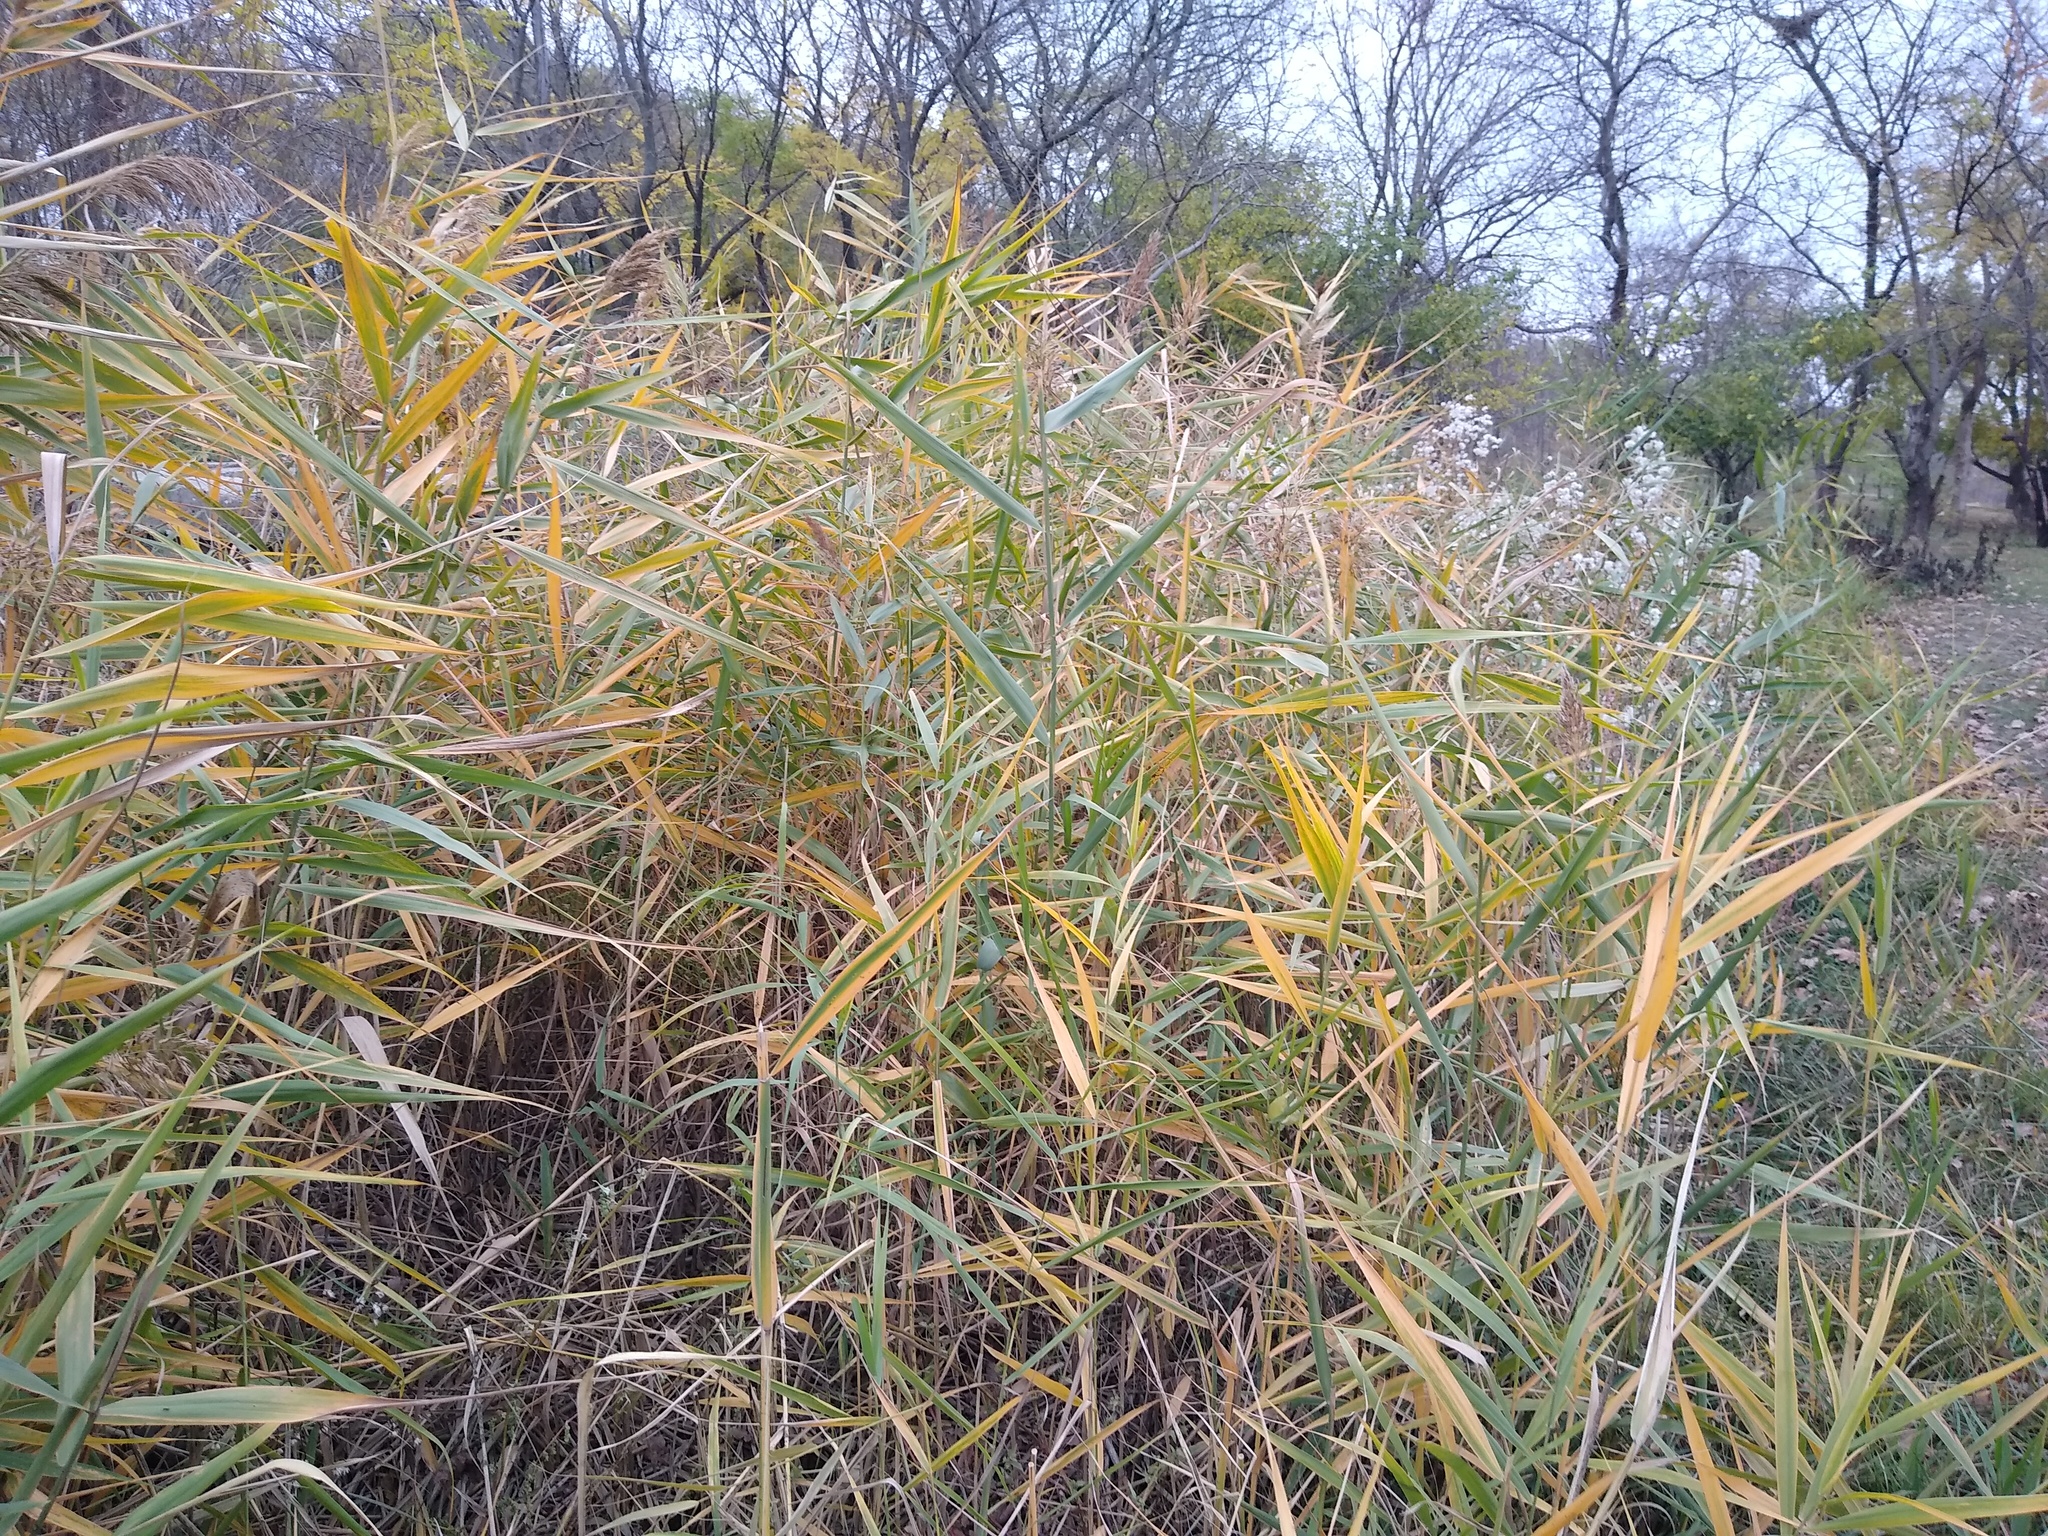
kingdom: Plantae
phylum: Tracheophyta
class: Liliopsida
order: Poales
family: Poaceae
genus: Phragmites
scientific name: Phragmites australis
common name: Common reed
